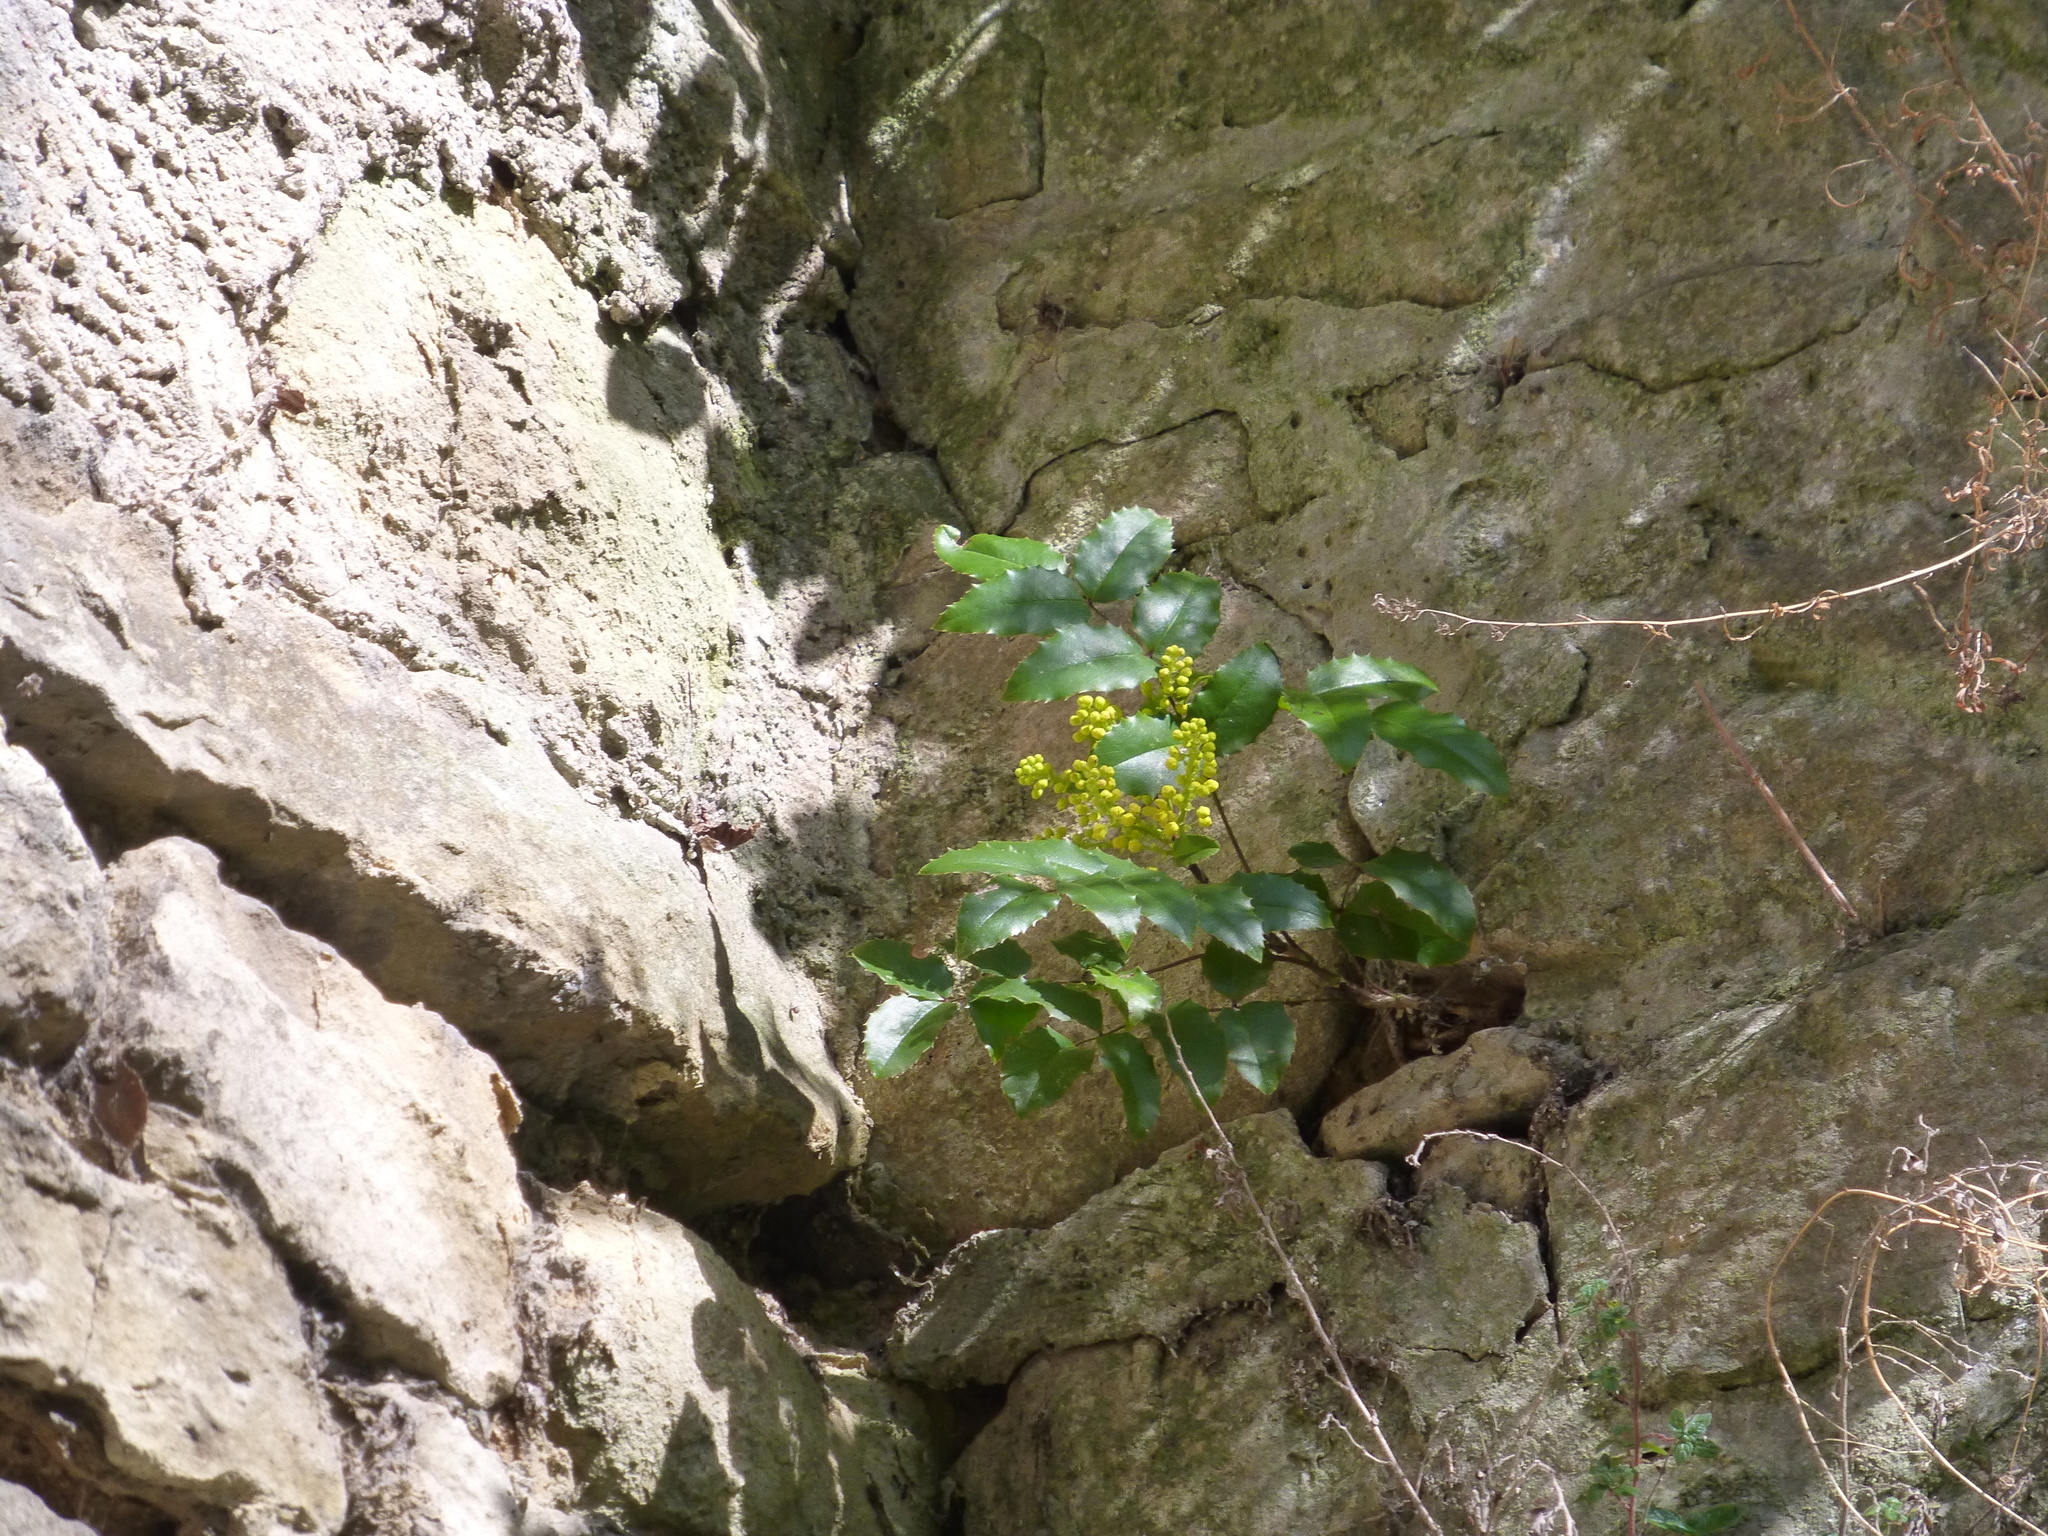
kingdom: Plantae
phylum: Tracheophyta
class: Magnoliopsida
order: Ranunculales
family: Berberidaceae
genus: Mahonia
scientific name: Mahonia aquifolium
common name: Oregon-grape
